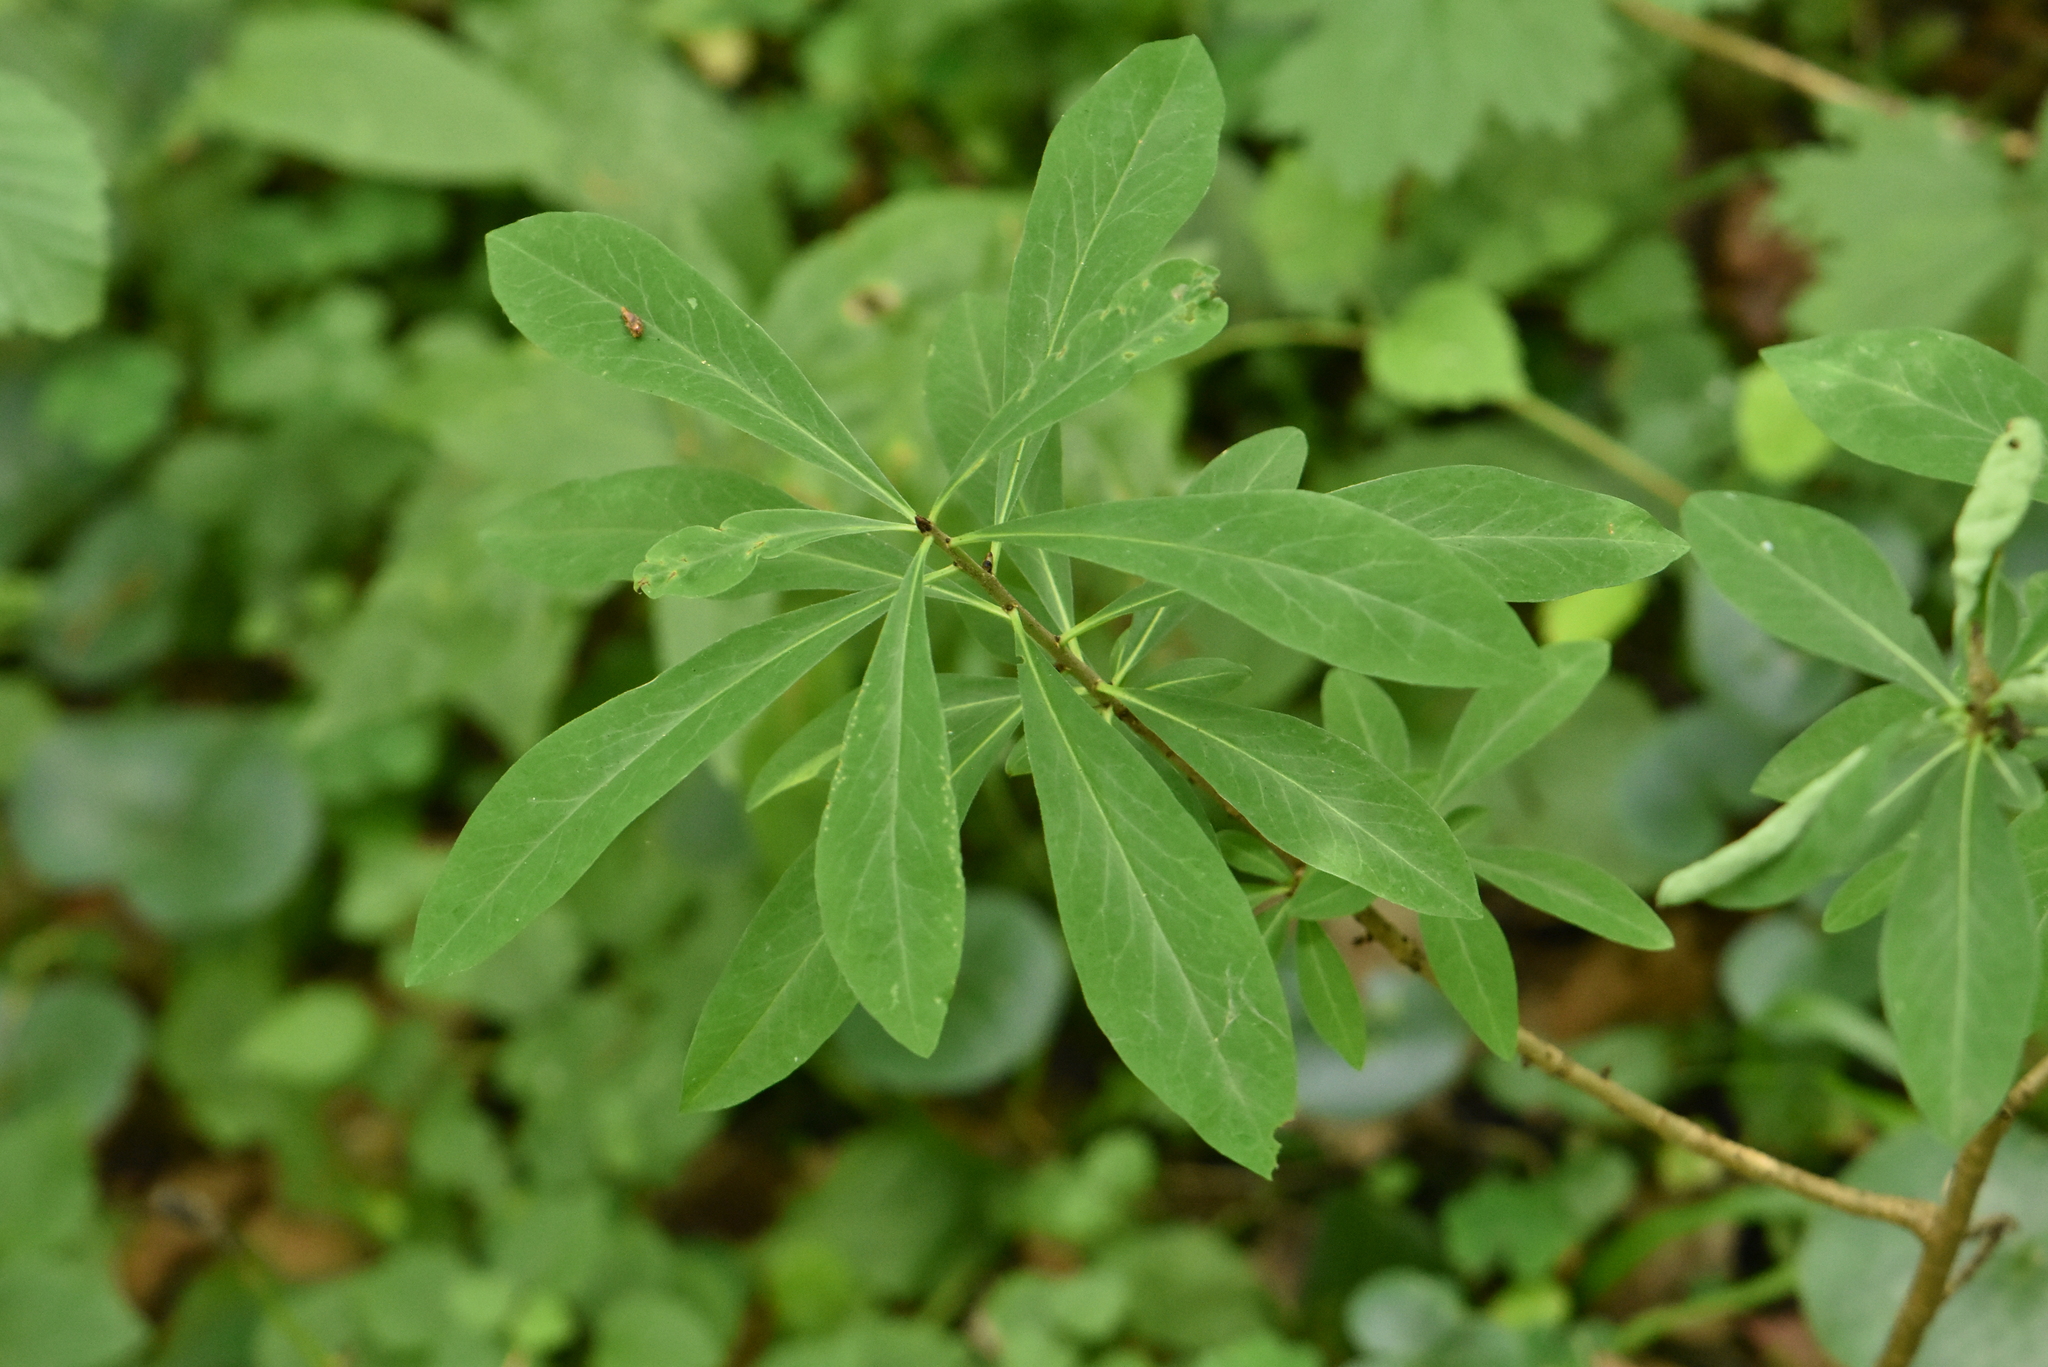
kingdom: Plantae
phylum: Tracheophyta
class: Magnoliopsida
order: Malvales
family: Thymelaeaceae
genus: Daphne
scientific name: Daphne mezereum
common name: Mezereon
